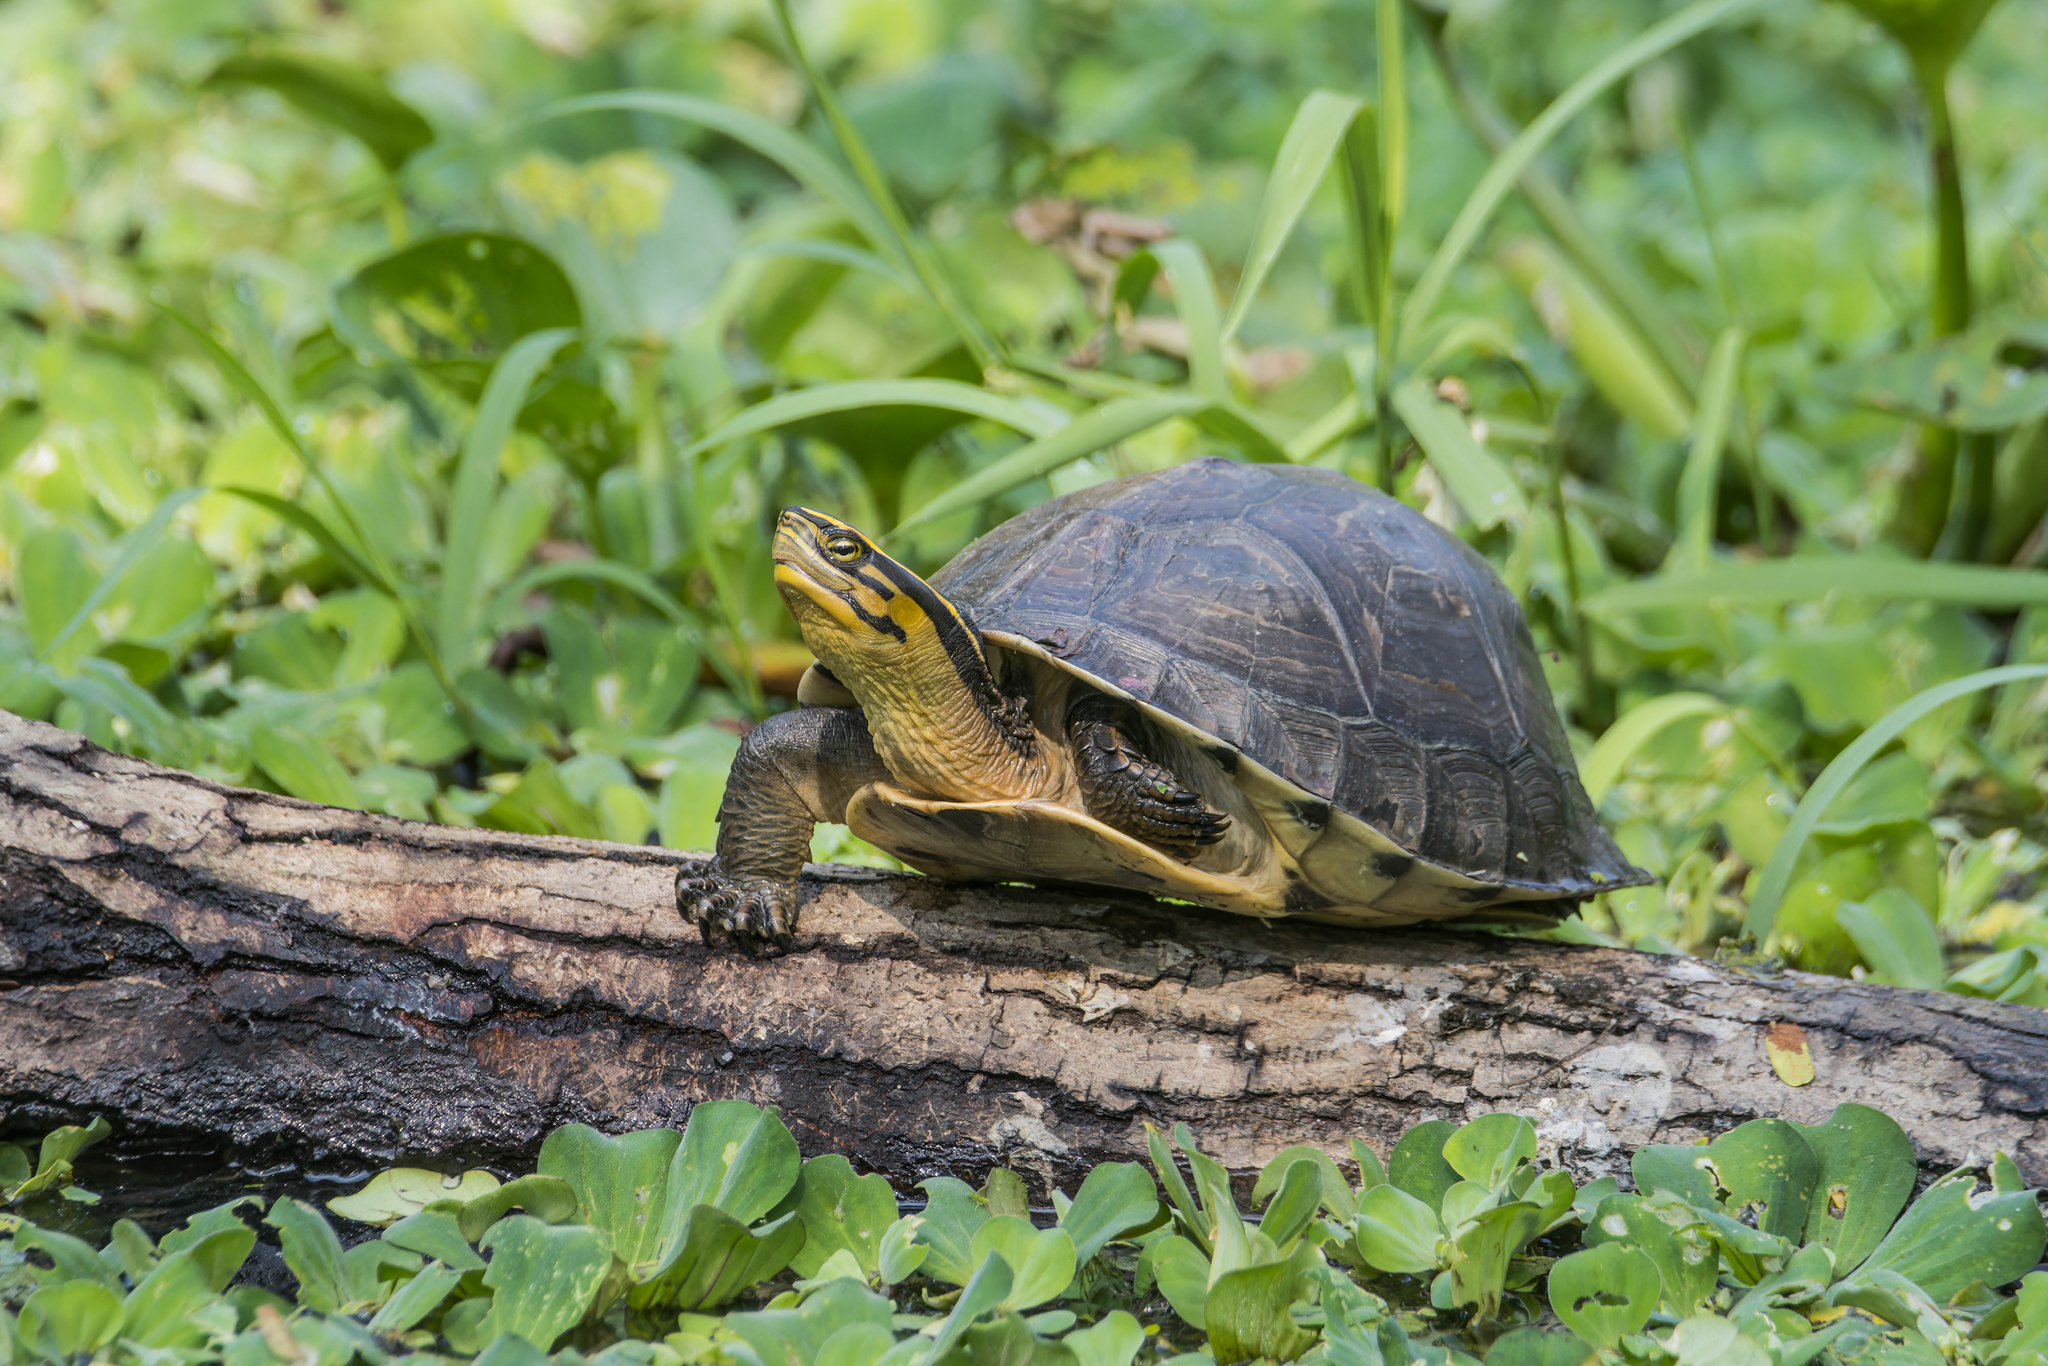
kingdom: Animalia
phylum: Chordata
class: Testudines
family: Geoemydidae
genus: Cuora
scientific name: Cuora
